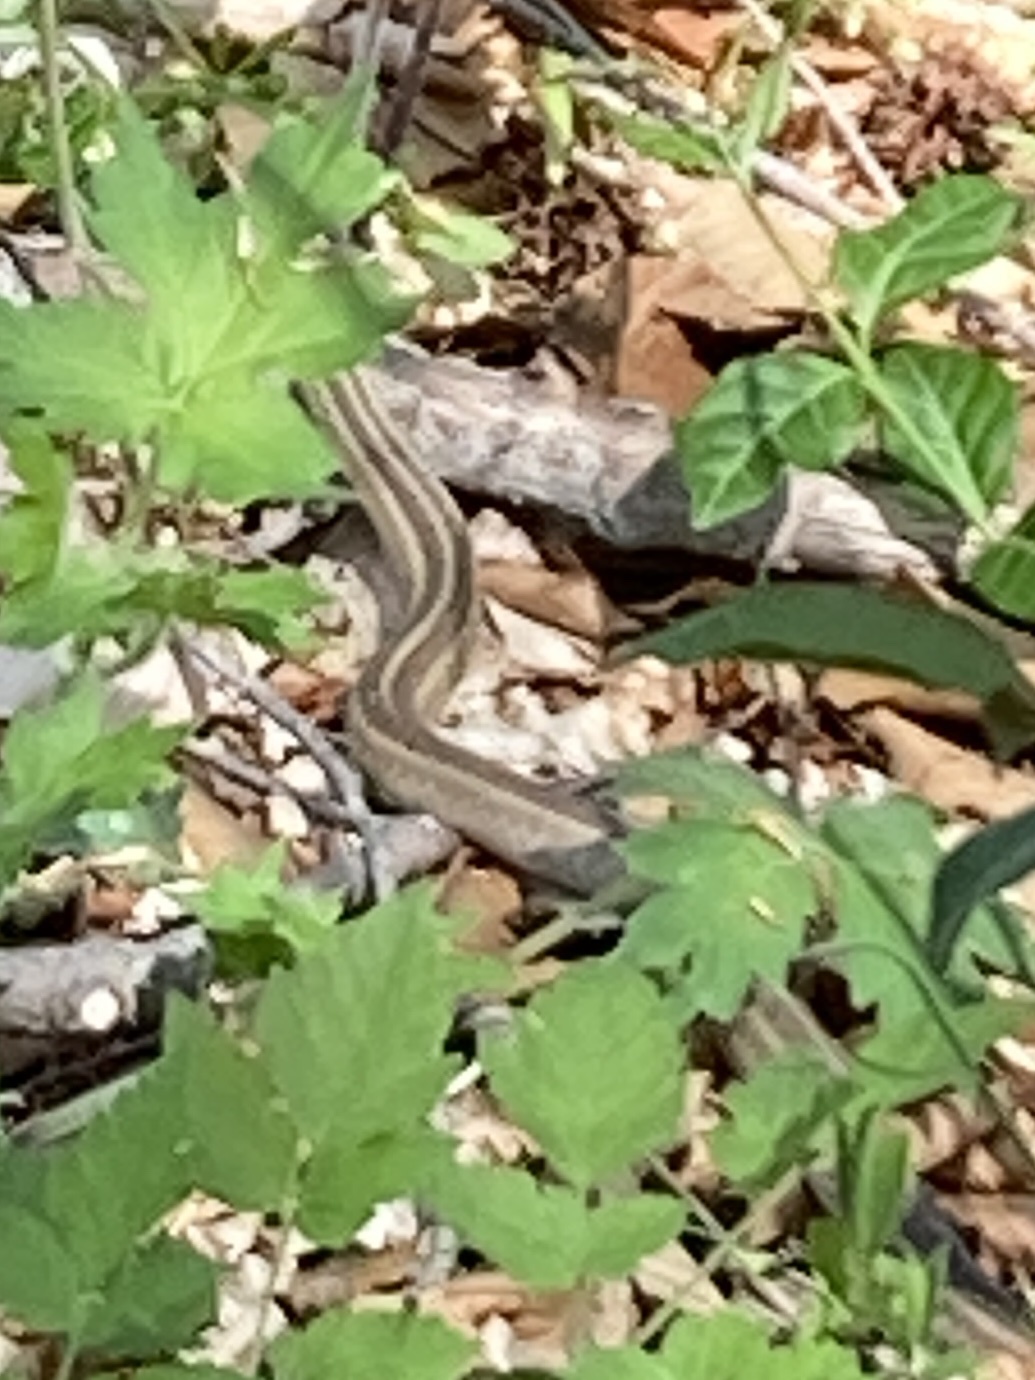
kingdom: Animalia
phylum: Chordata
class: Squamata
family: Colubridae
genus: Thamnophis
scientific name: Thamnophis sirtalis
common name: Common garter snake
